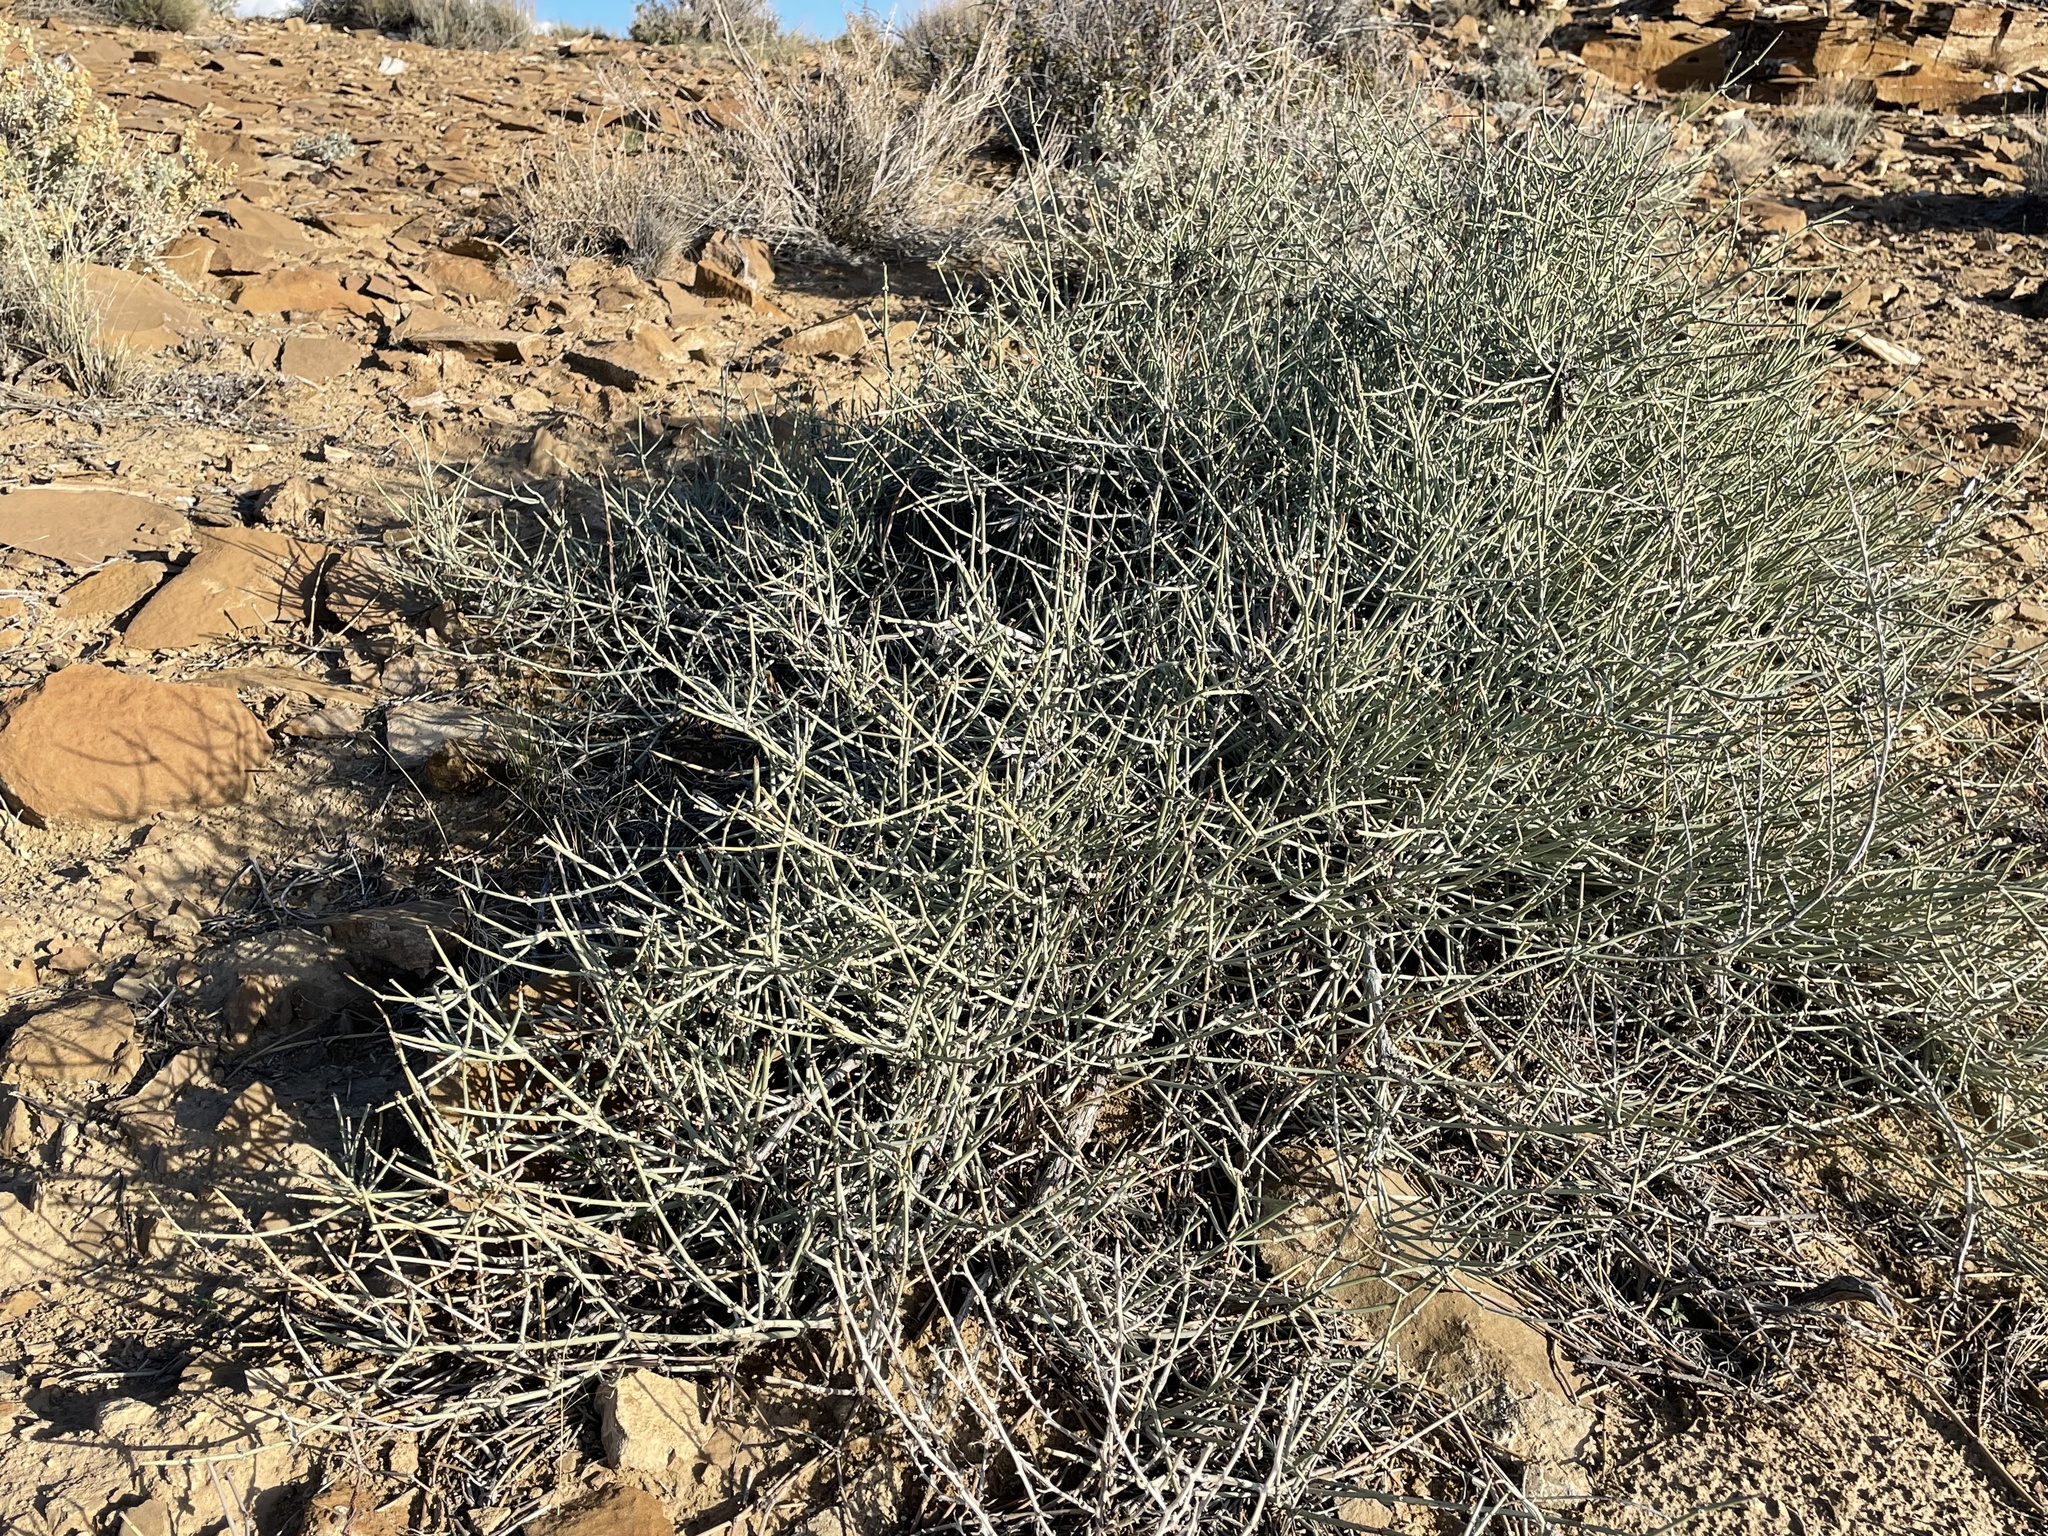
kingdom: Plantae
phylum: Tracheophyta
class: Gnetopsida
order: Ephedrales
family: Ephedraceae
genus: Ephedra
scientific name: Ephedra torreyana
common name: Torrey ephedra
